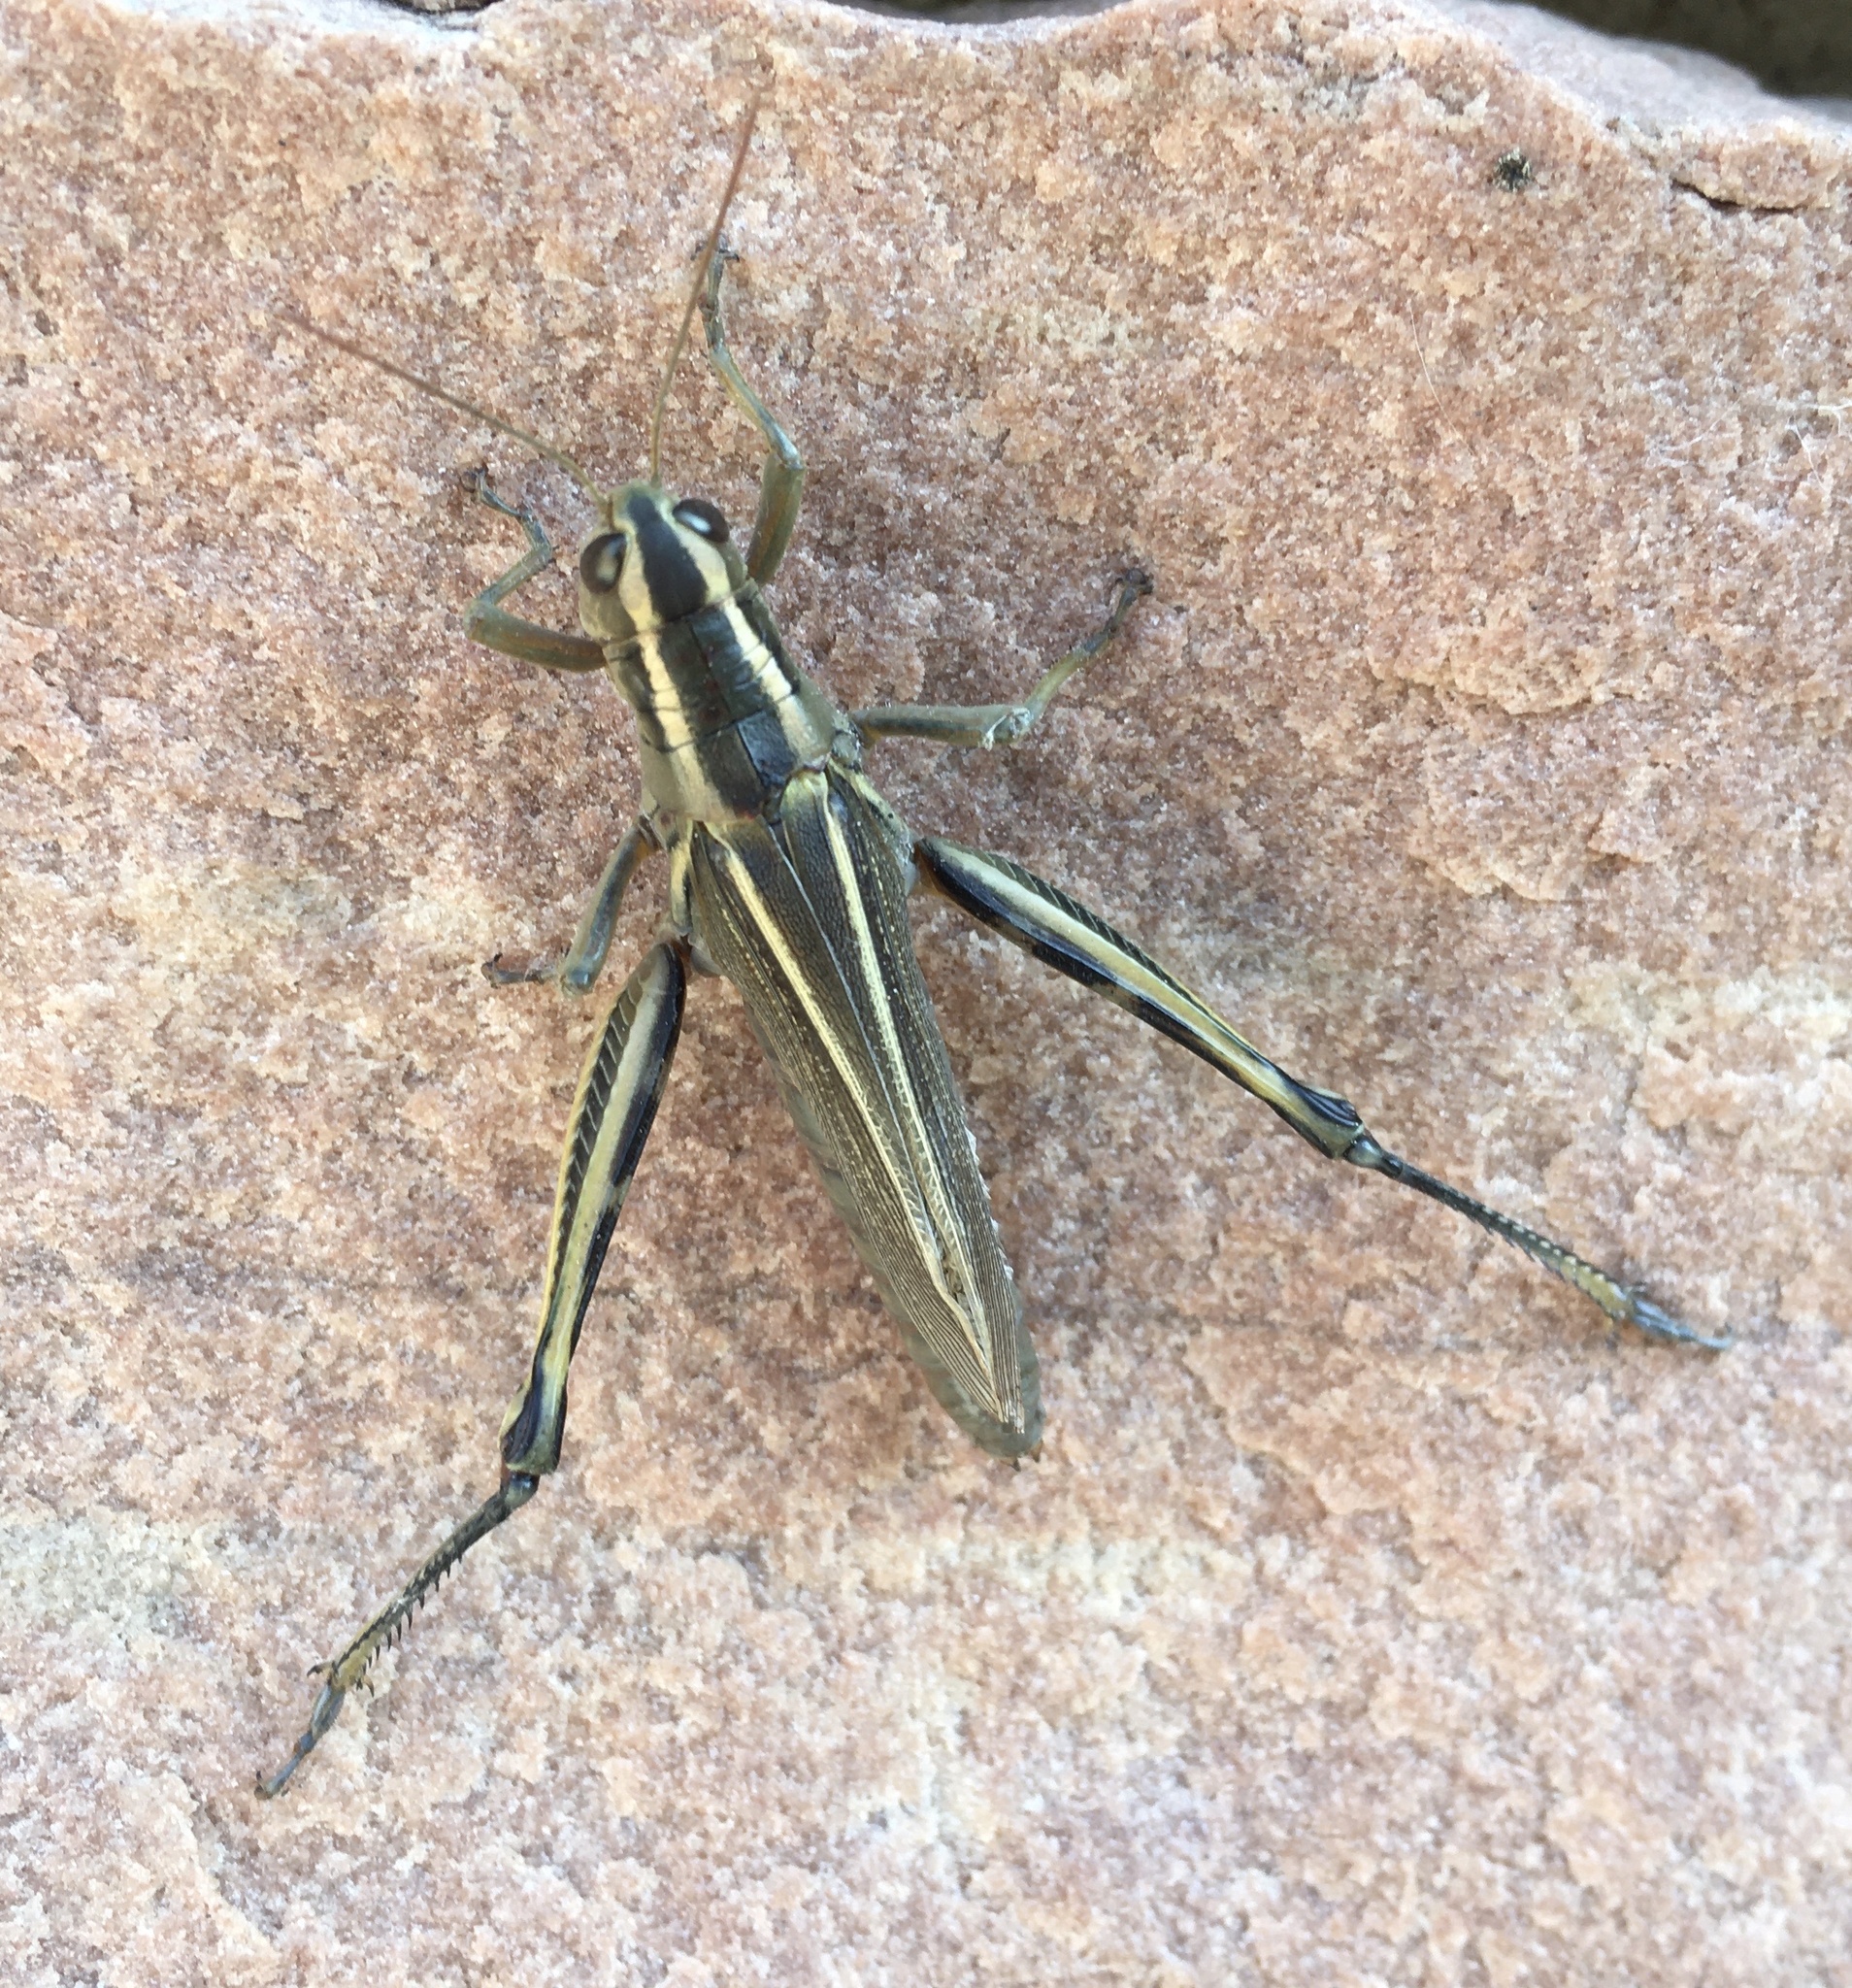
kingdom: Animalia
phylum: Arthropoda
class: Insecta
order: Orthoptera
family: Acrididae
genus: Melanoplus
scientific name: Melanoplus bivittatus
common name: Two-striped grasshopper
